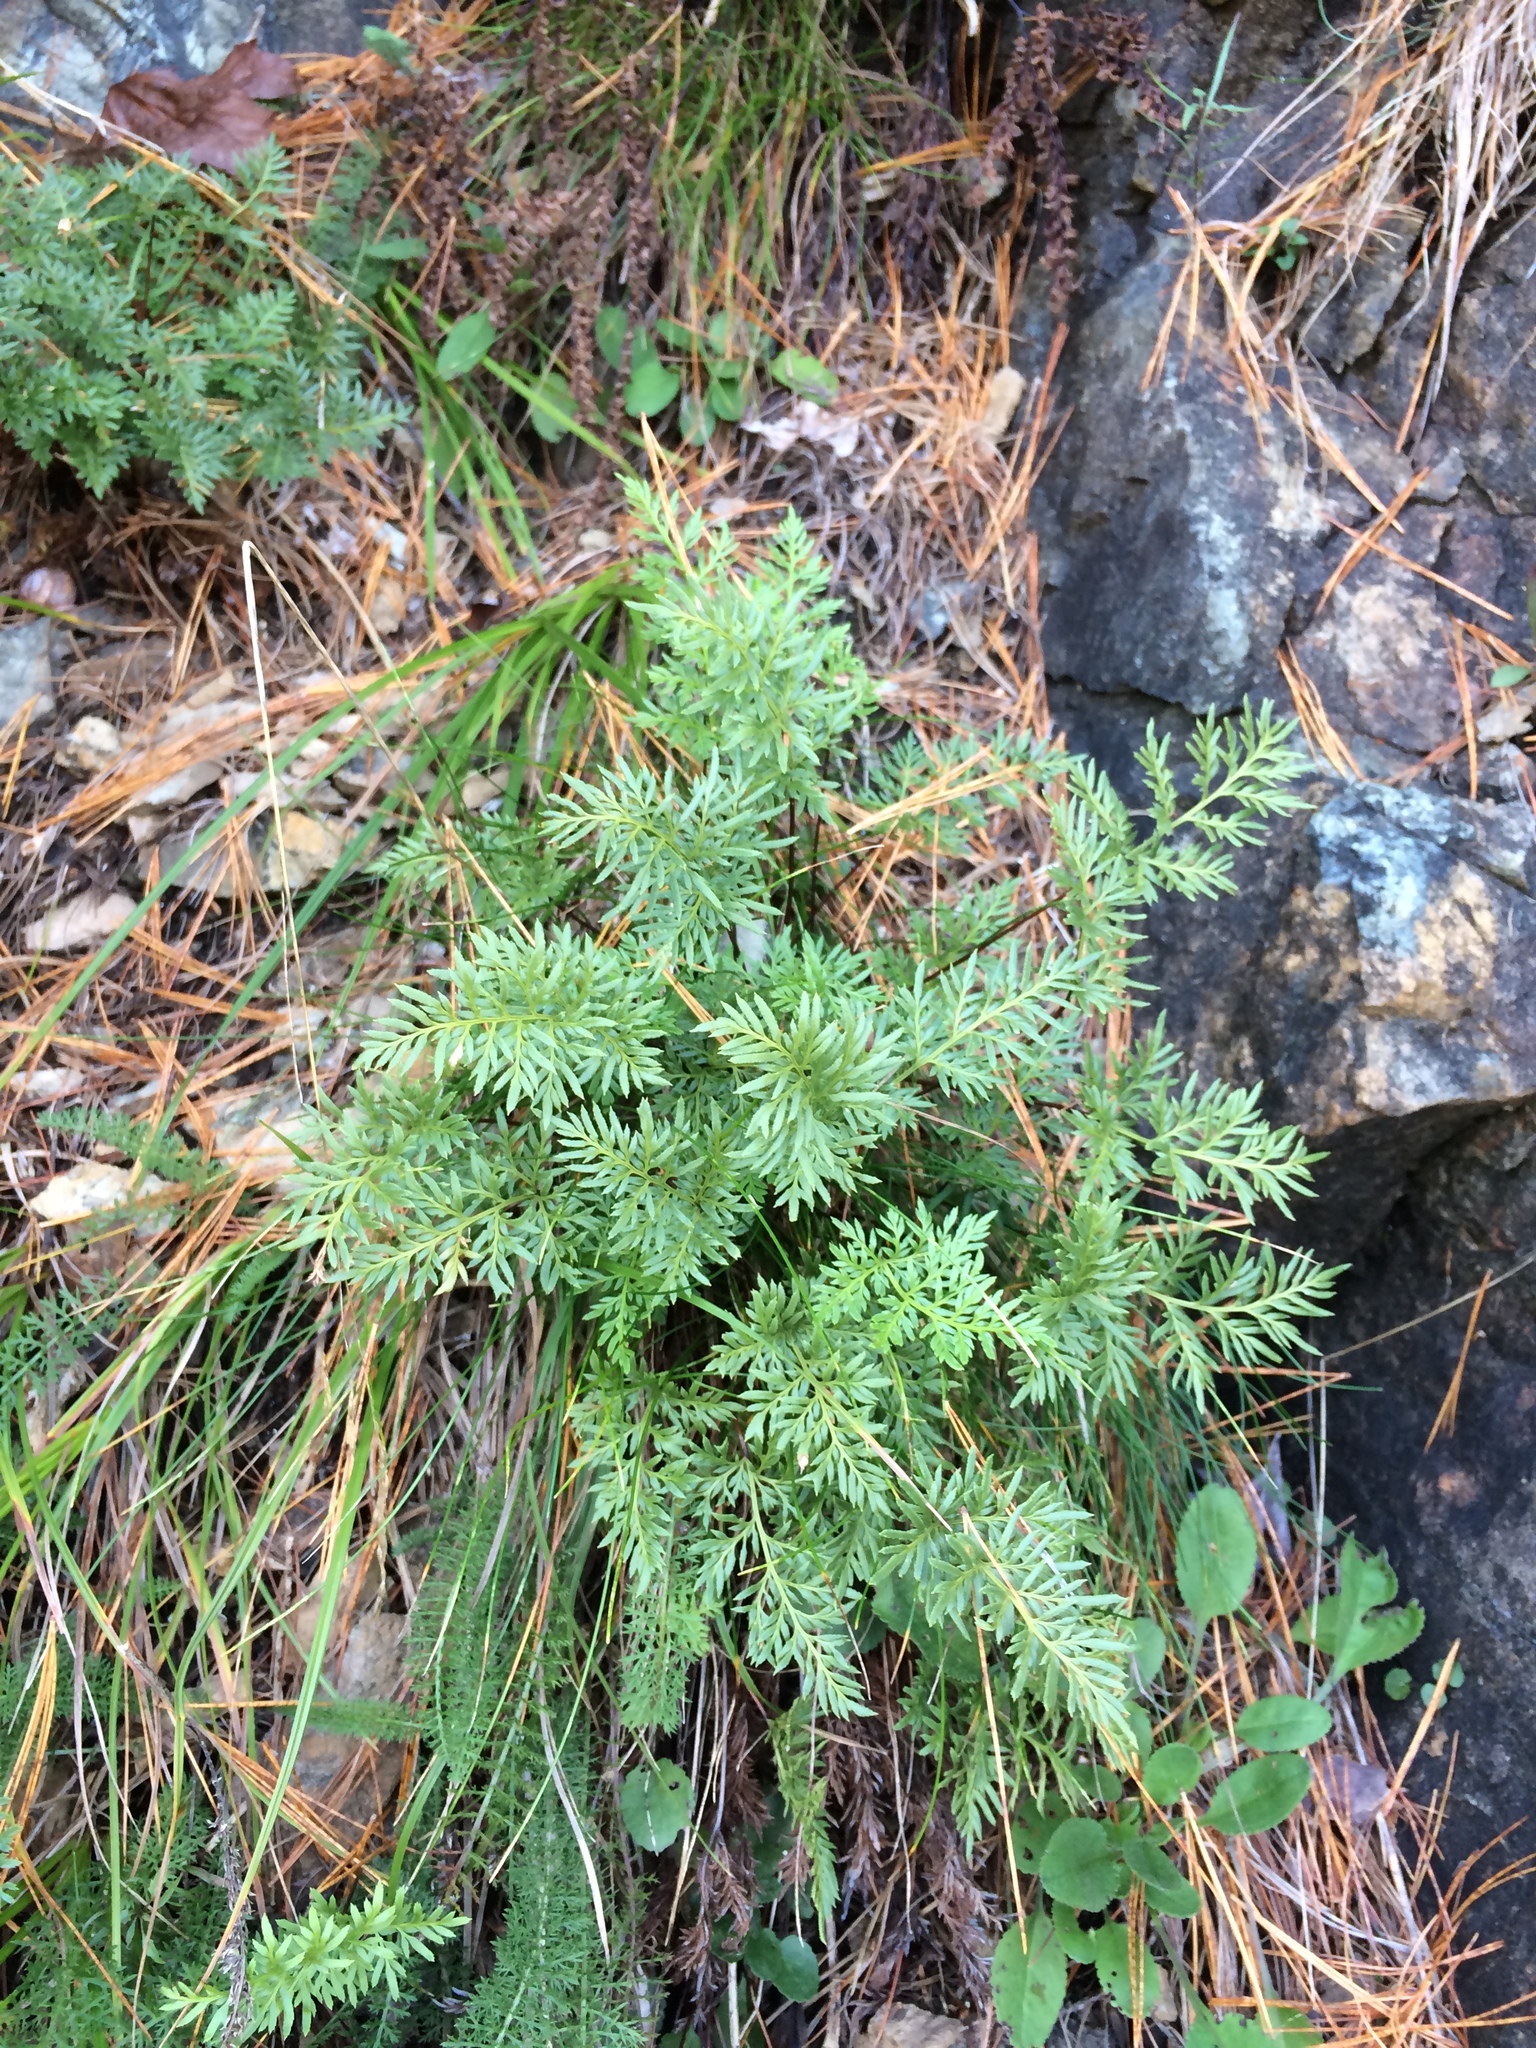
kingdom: Plantae
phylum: Tracheophyta
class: Polypodiopsida
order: Polypodiales
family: Pteridaceae
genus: Aspidotis
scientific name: Aspidotis densa
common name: Indian's dream
